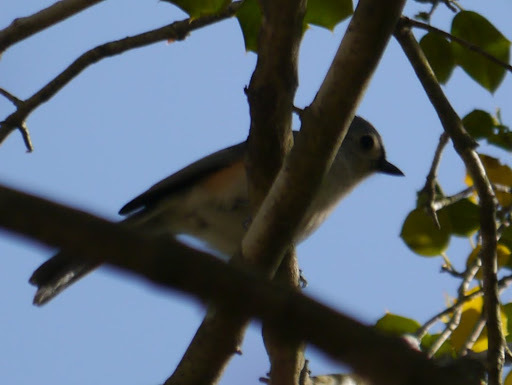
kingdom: Animalia
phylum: Chordata
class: Aves
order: Passeriformes
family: Paridae
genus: Baeolophus
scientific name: Baeolophus bicolor
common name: Tufted titmouse
